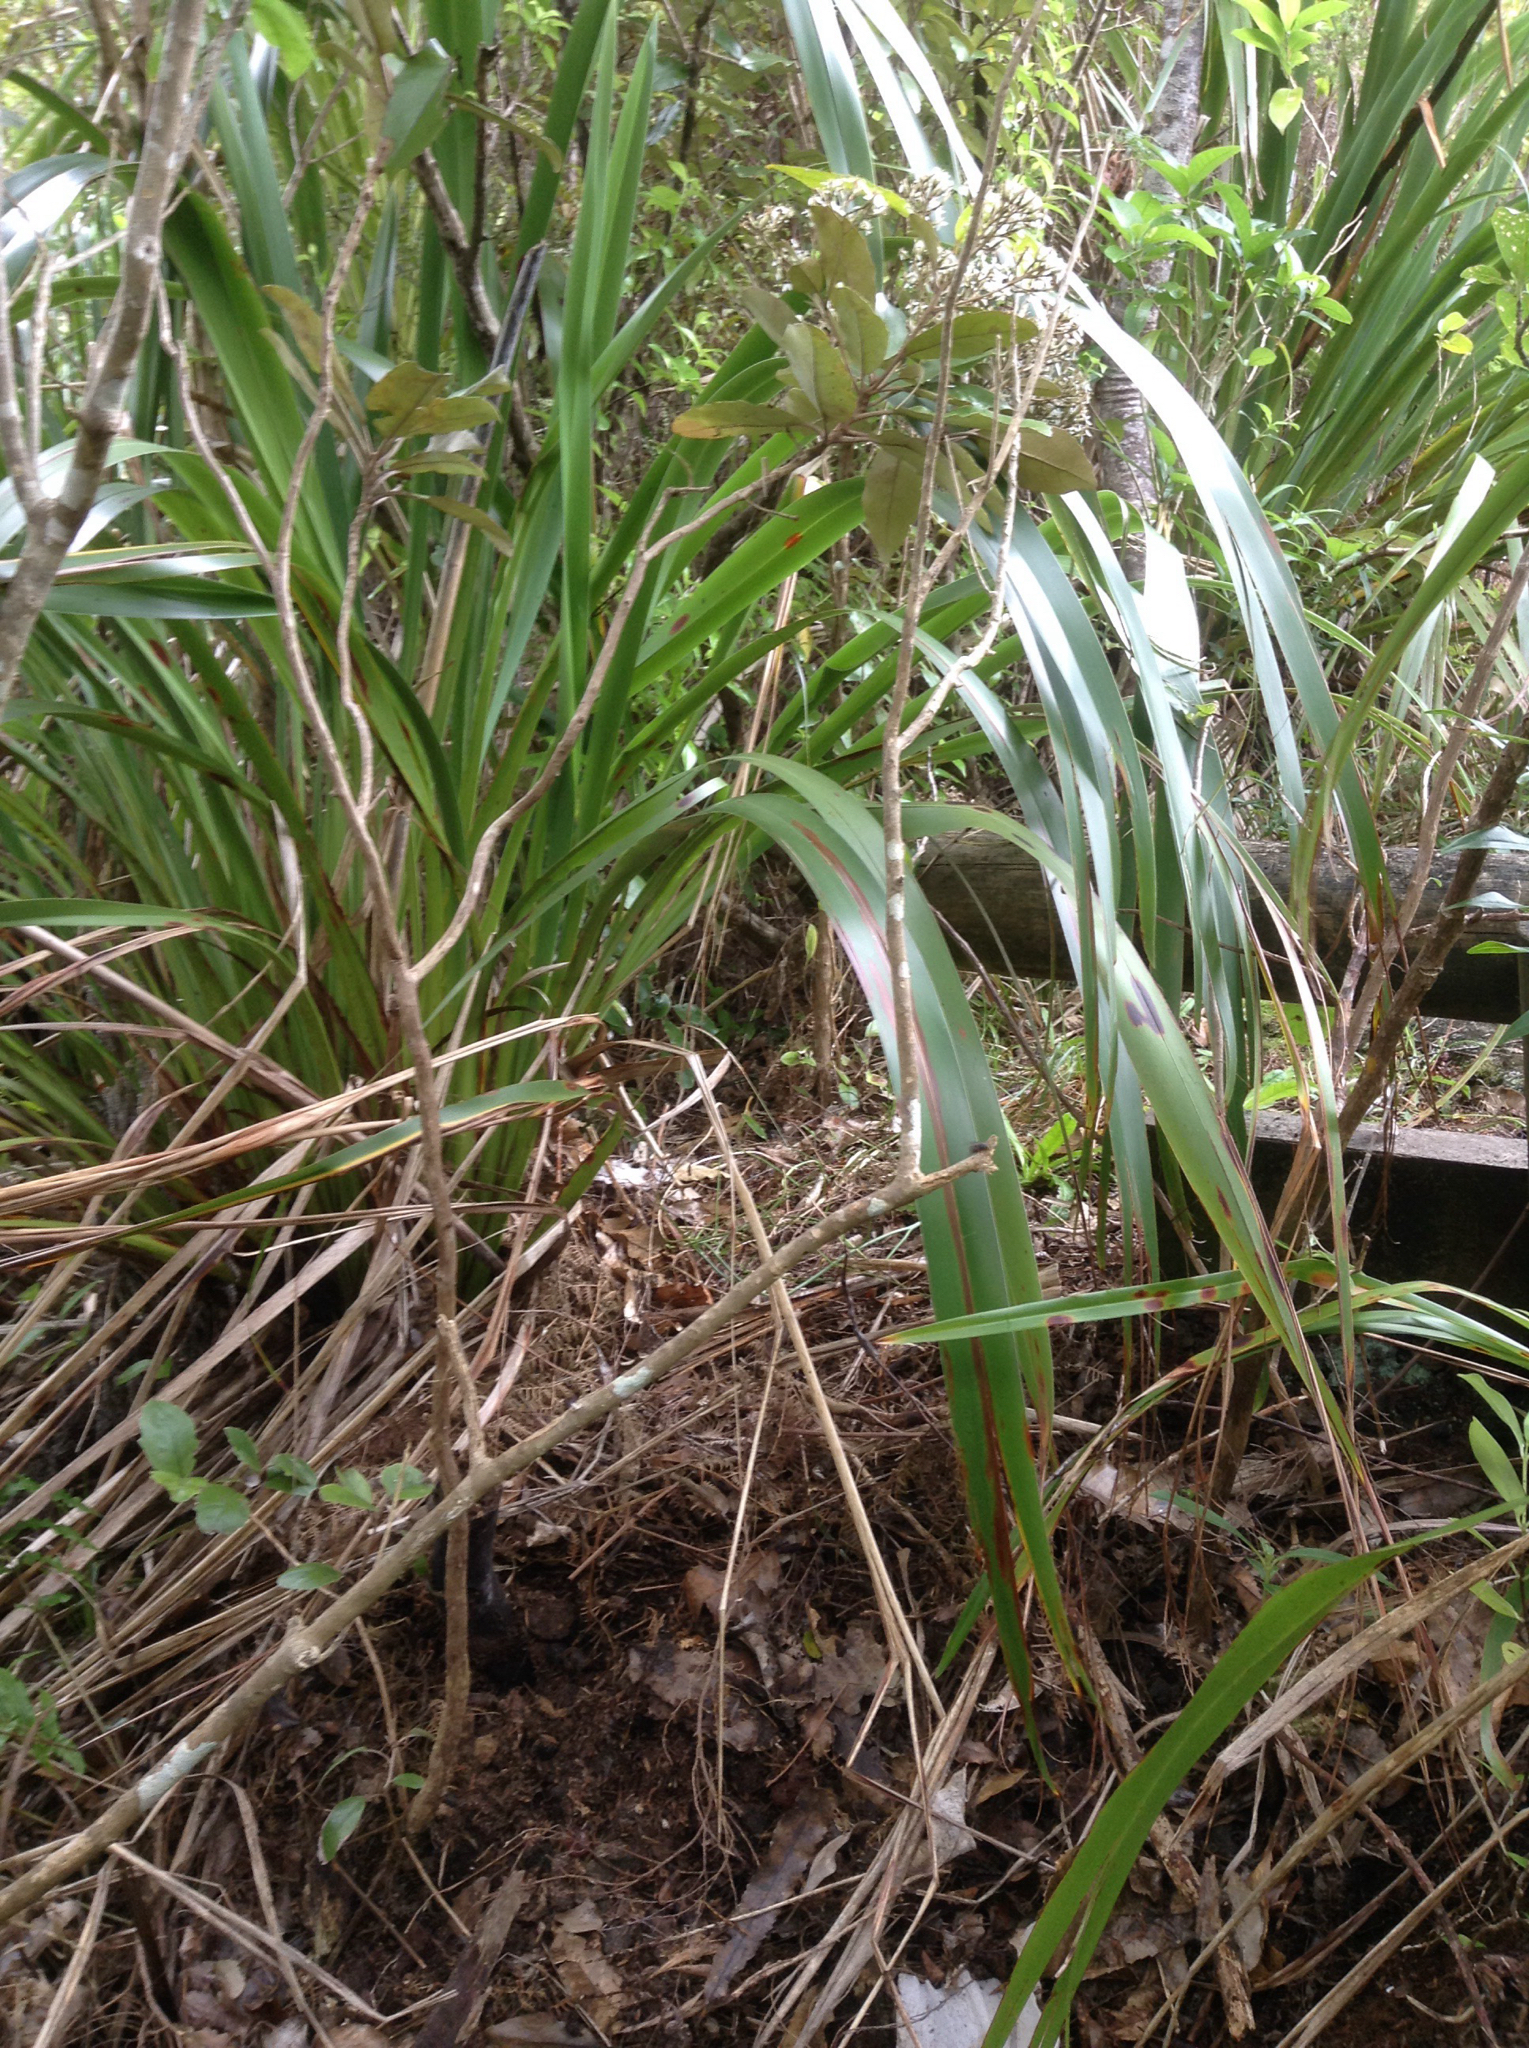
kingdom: Plantae
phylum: Tracheophyta
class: Magnoliopsida
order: Asterales
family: Asteraceae
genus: Olearia
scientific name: Olearia furfuracea
